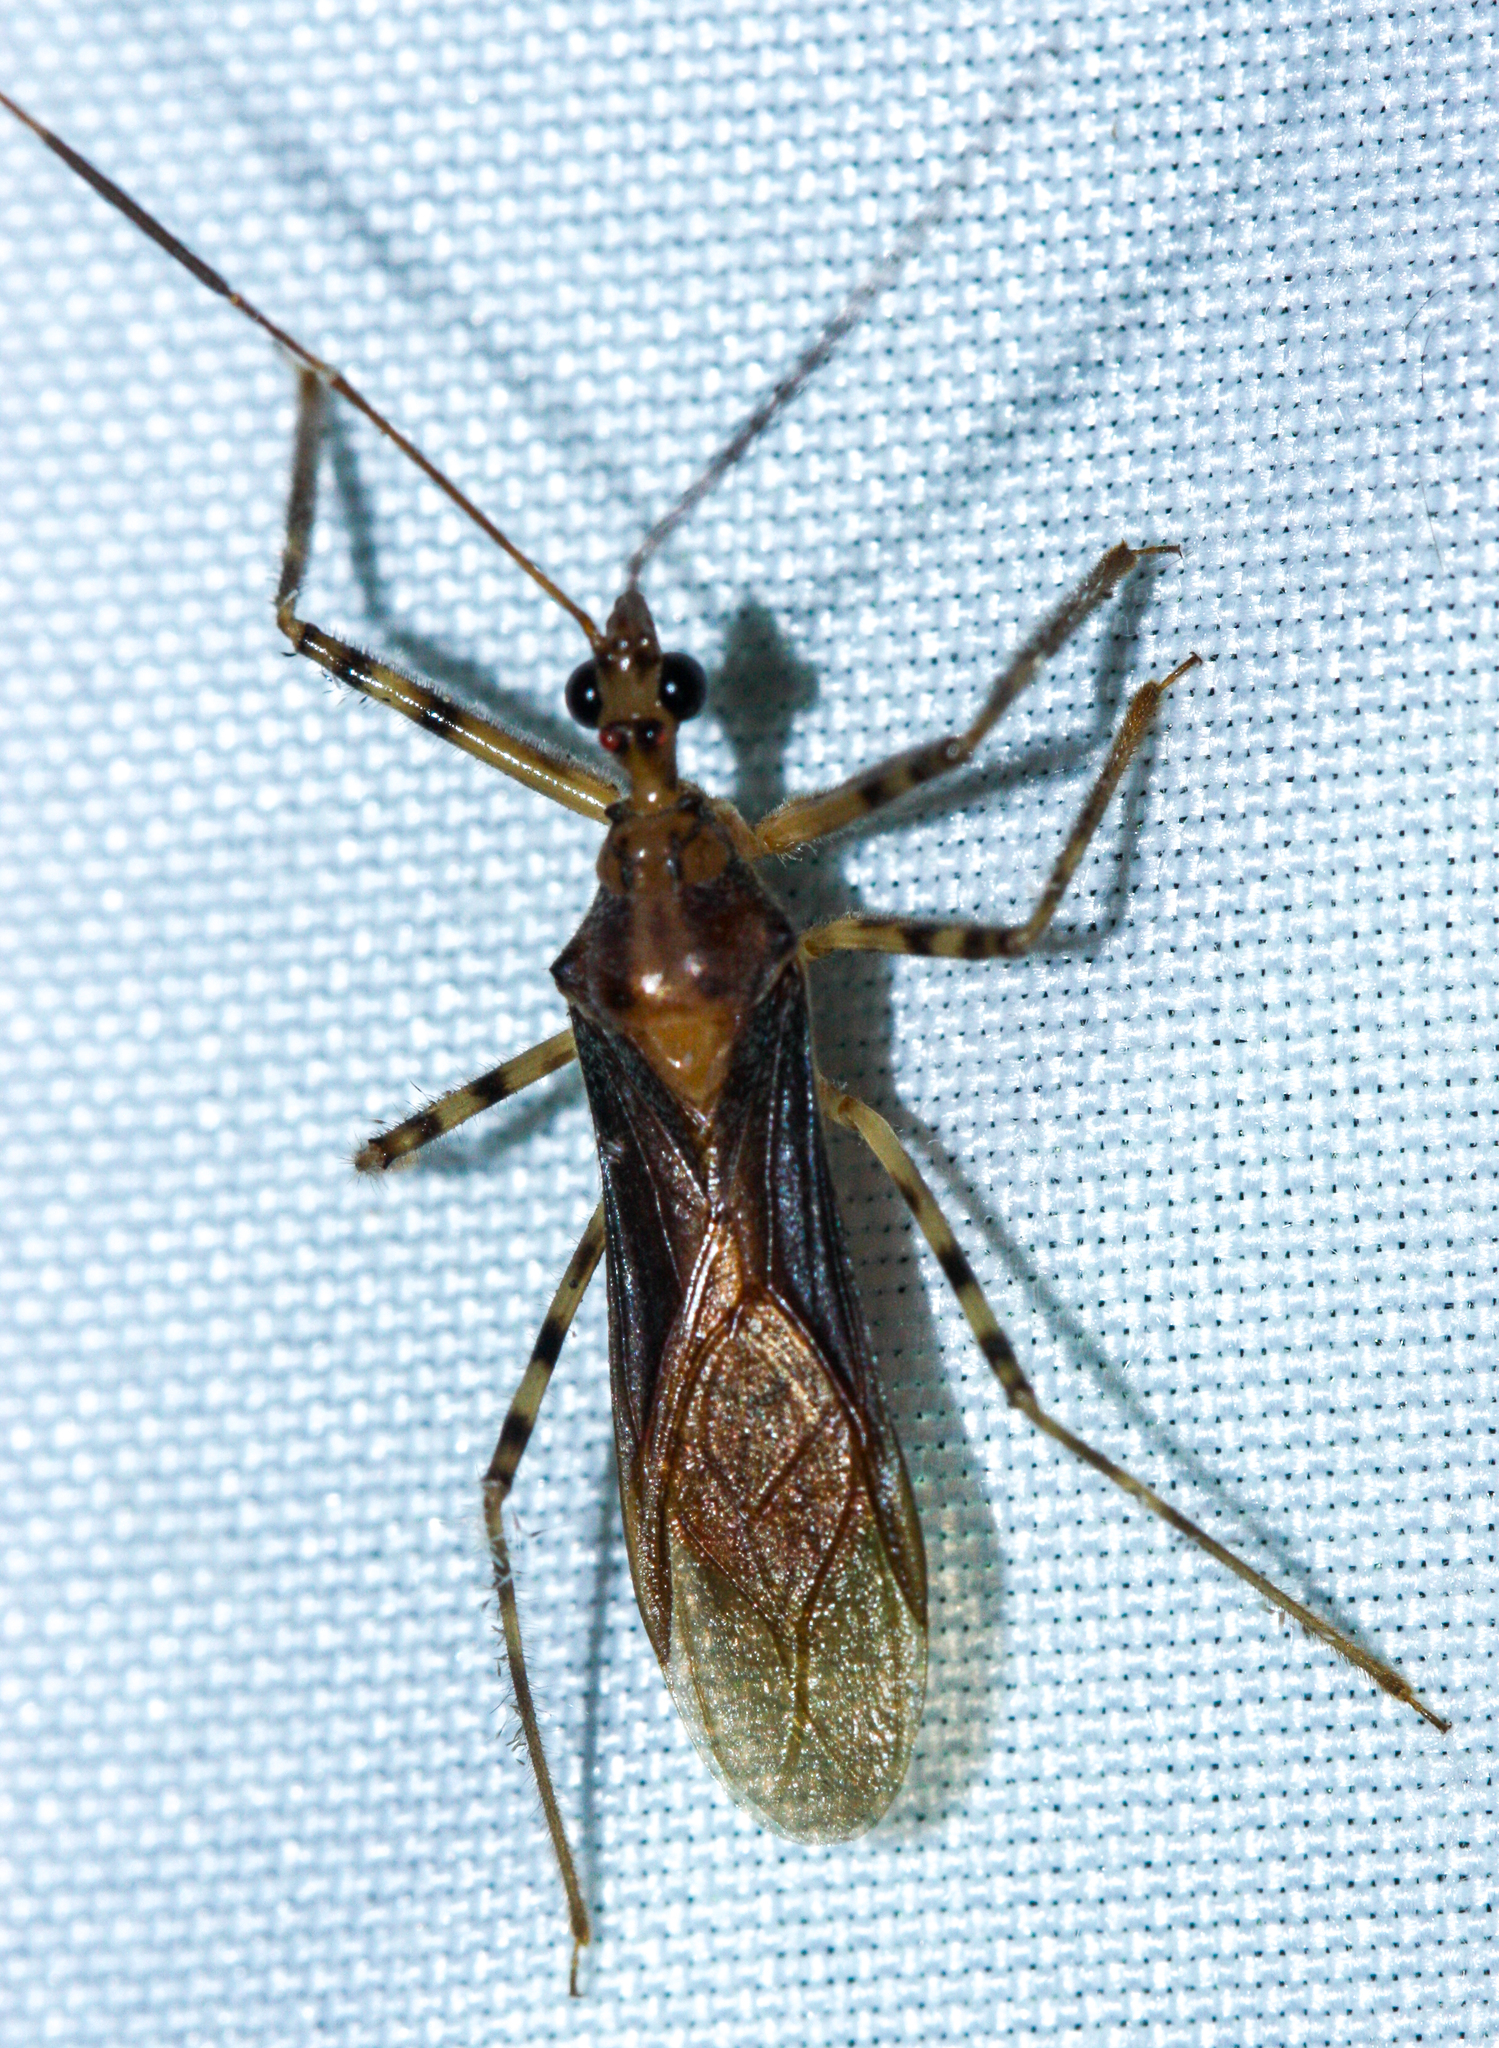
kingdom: Animalia
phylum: Arthropoda
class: Insecta
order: Hemiptera
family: Reduviidae
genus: Castolus
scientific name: Castolus ferox
